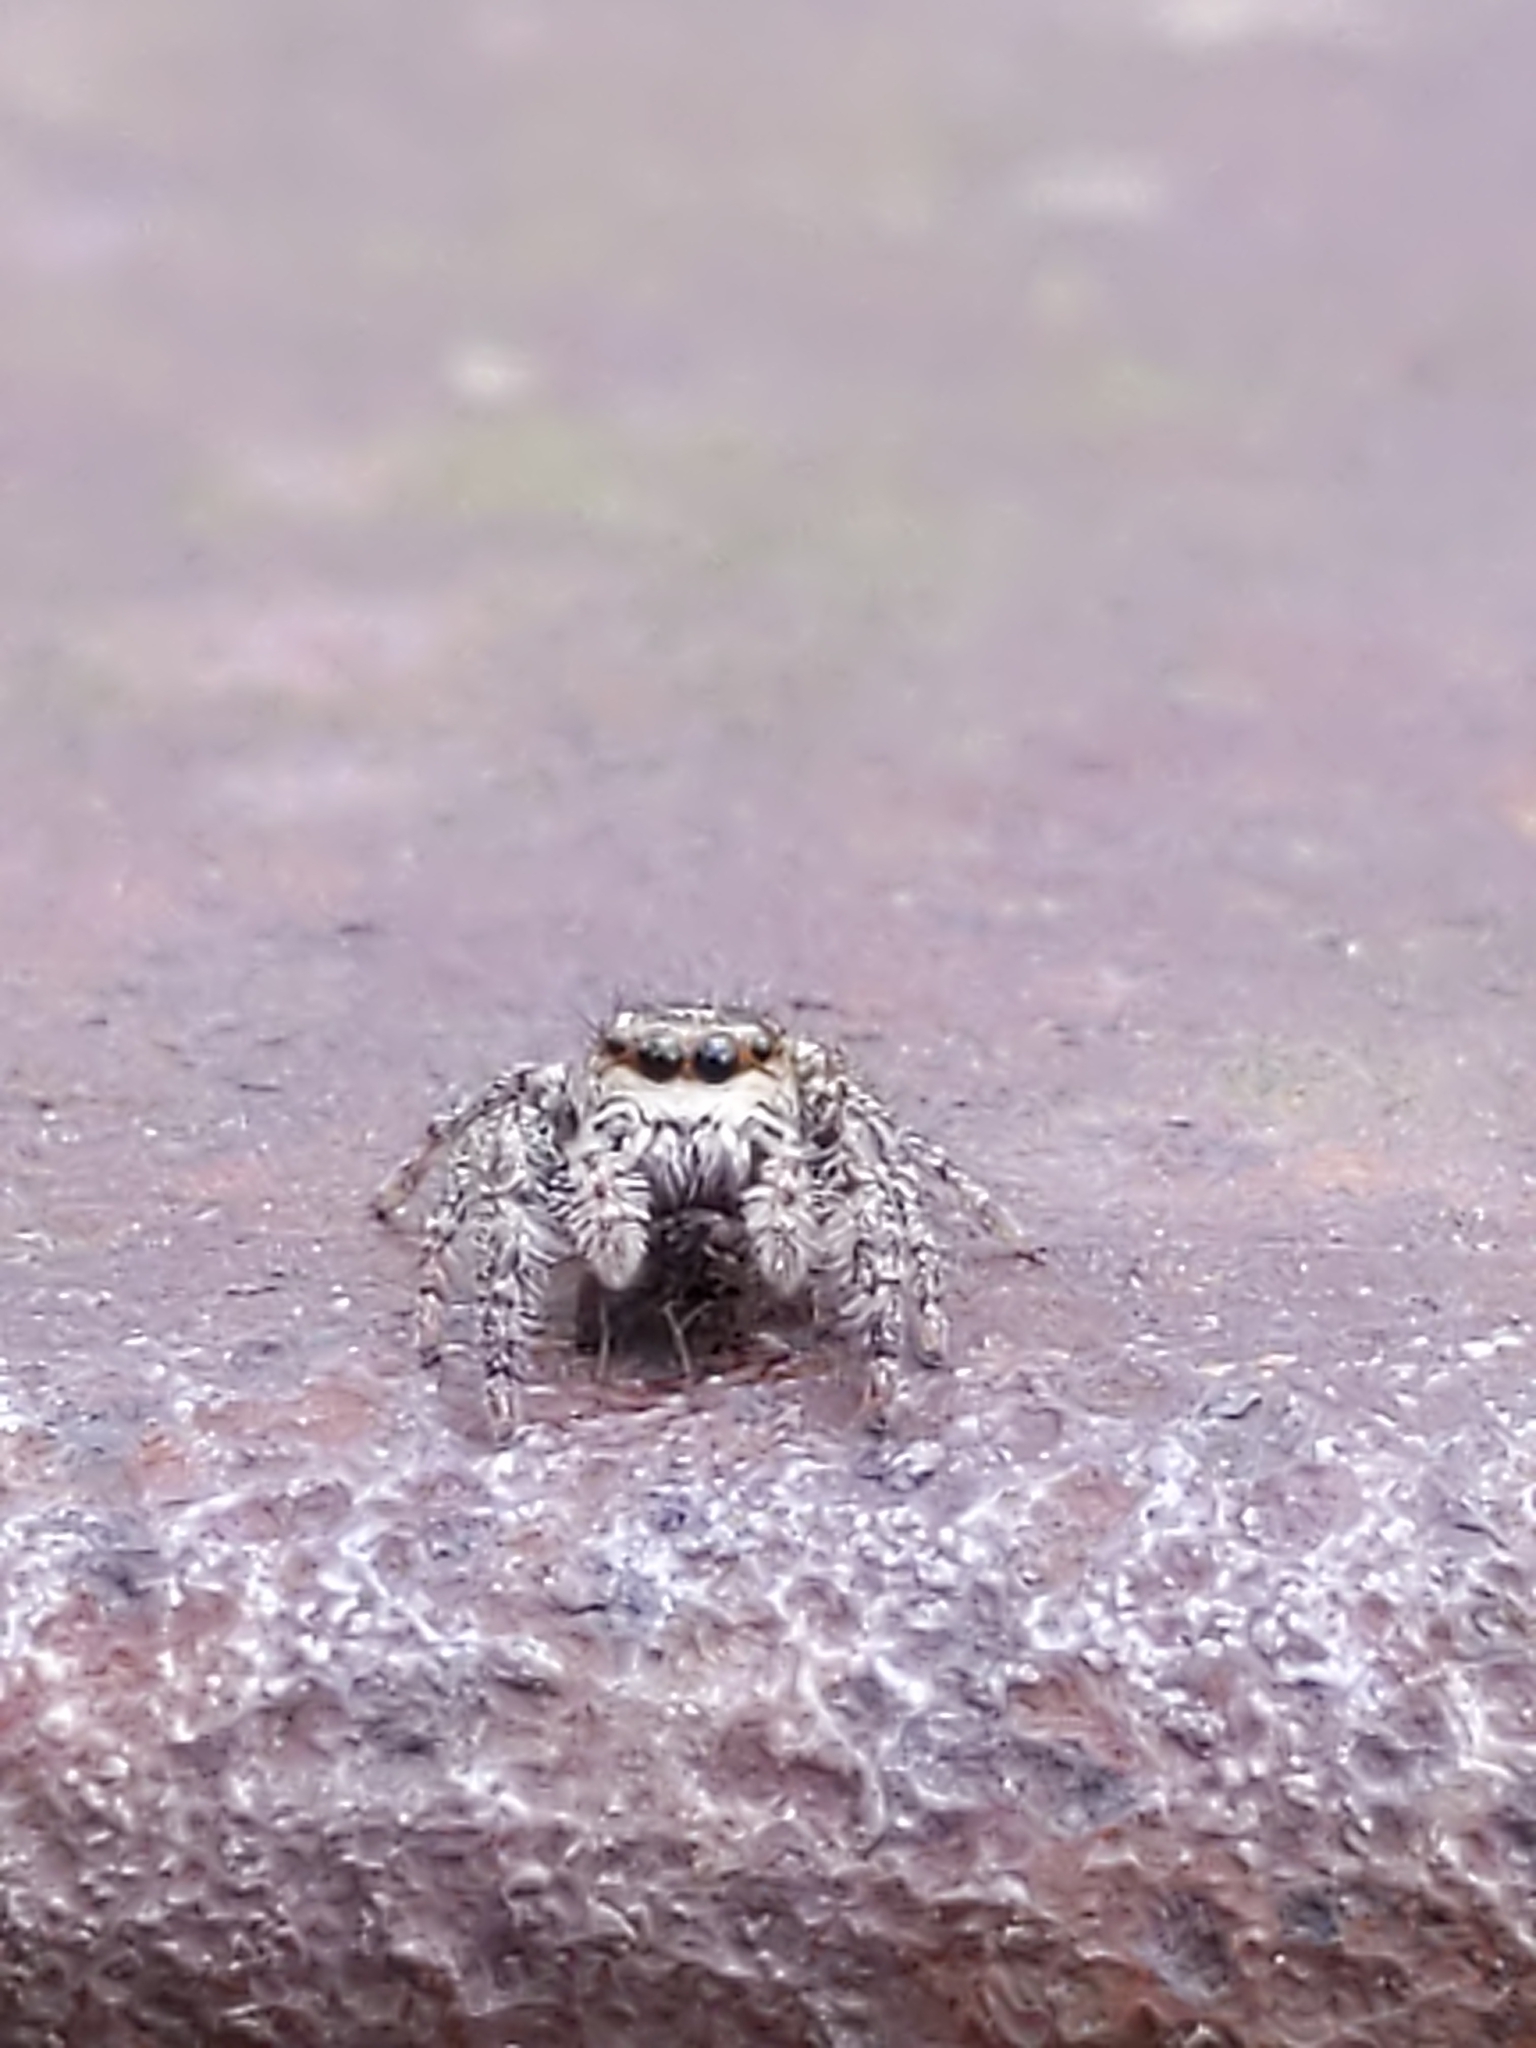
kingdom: Animalia
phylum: Arthropoda
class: Arachnida
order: Araneae
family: Salticidae
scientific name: Salticidae
